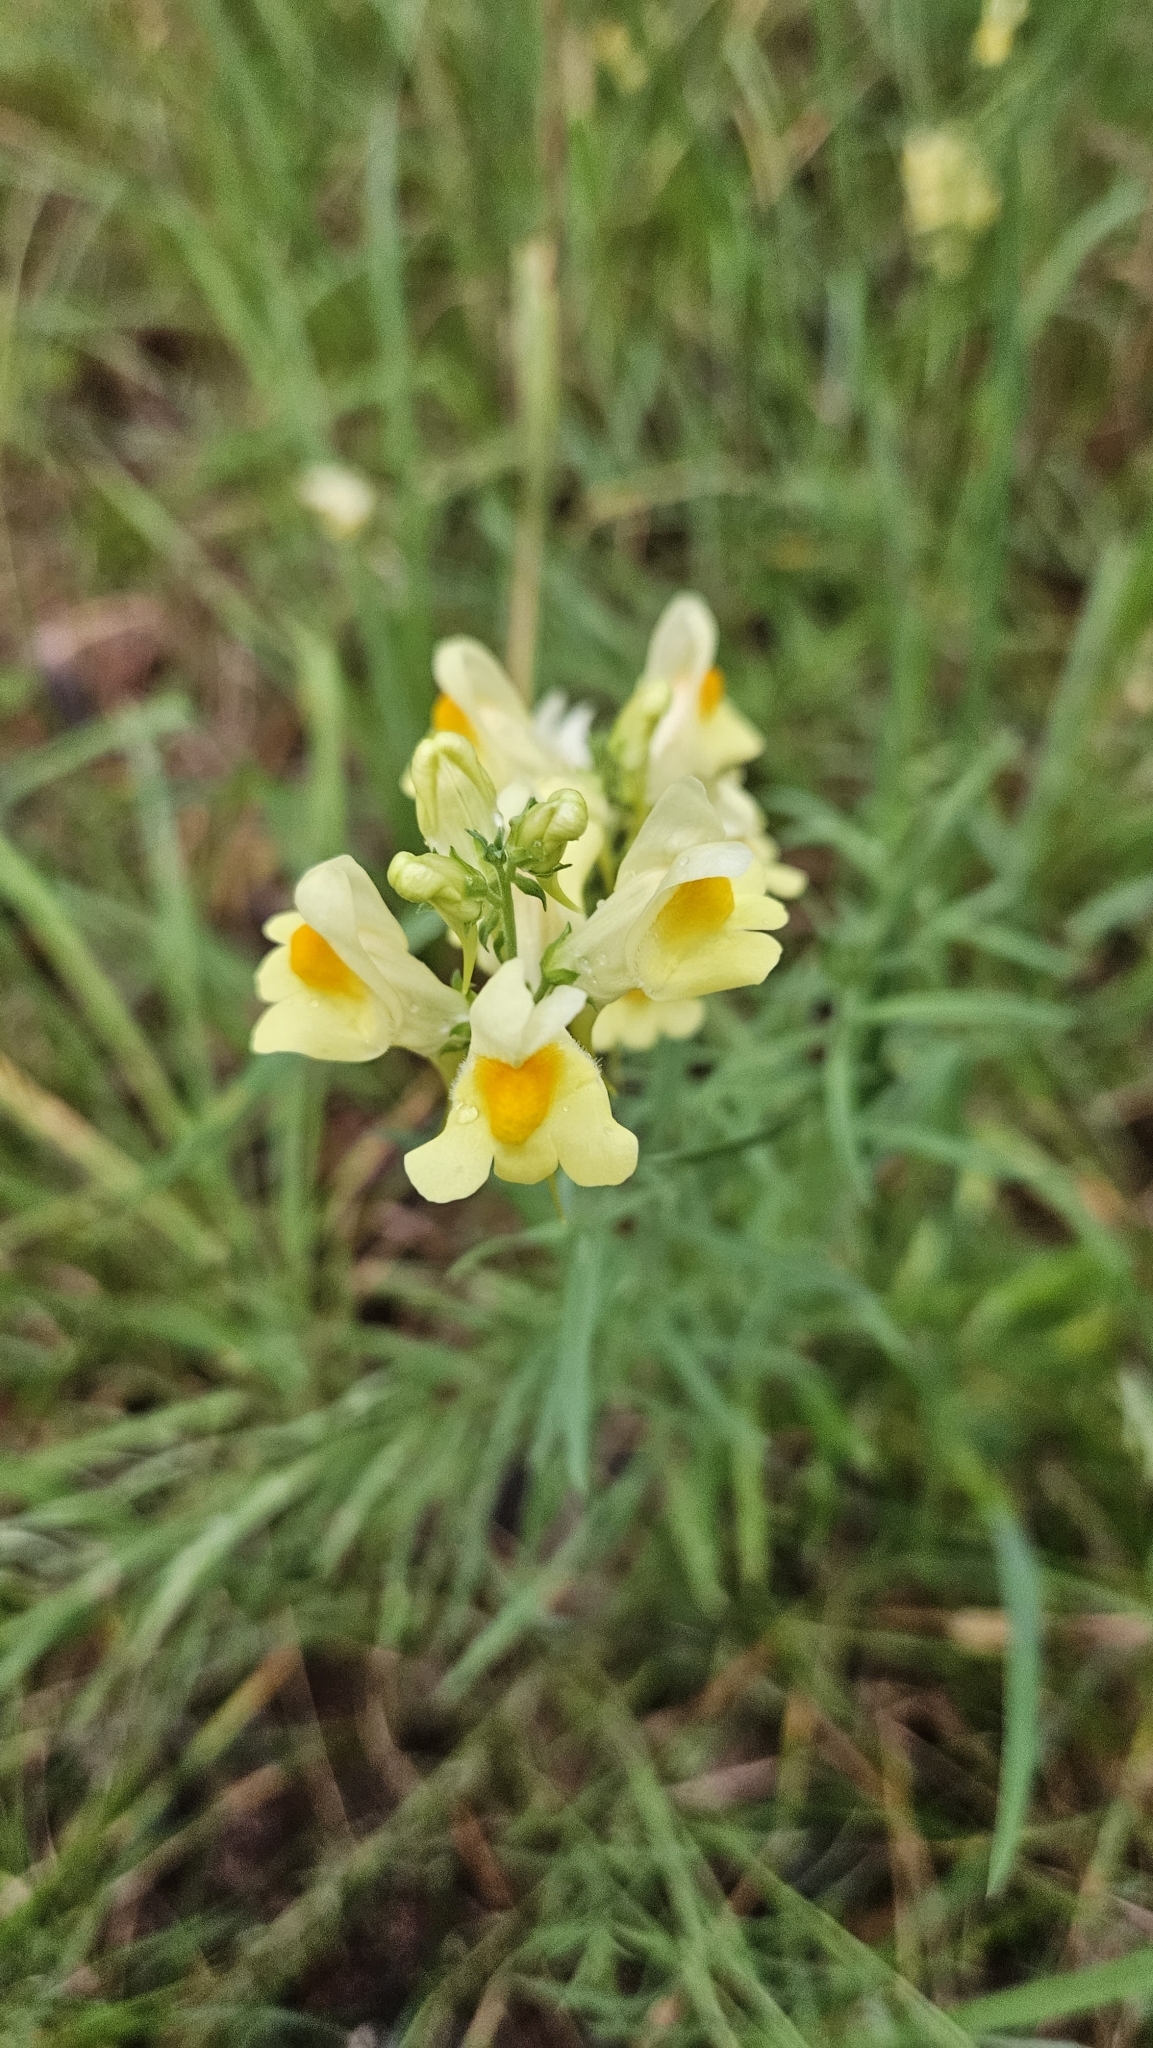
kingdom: Plantae
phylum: Tracheophyta
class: Magnoliopsida
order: Lamiales
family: Plantaginaceae
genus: Linaria
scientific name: Linaria vulgaris
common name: Butter and eggs
